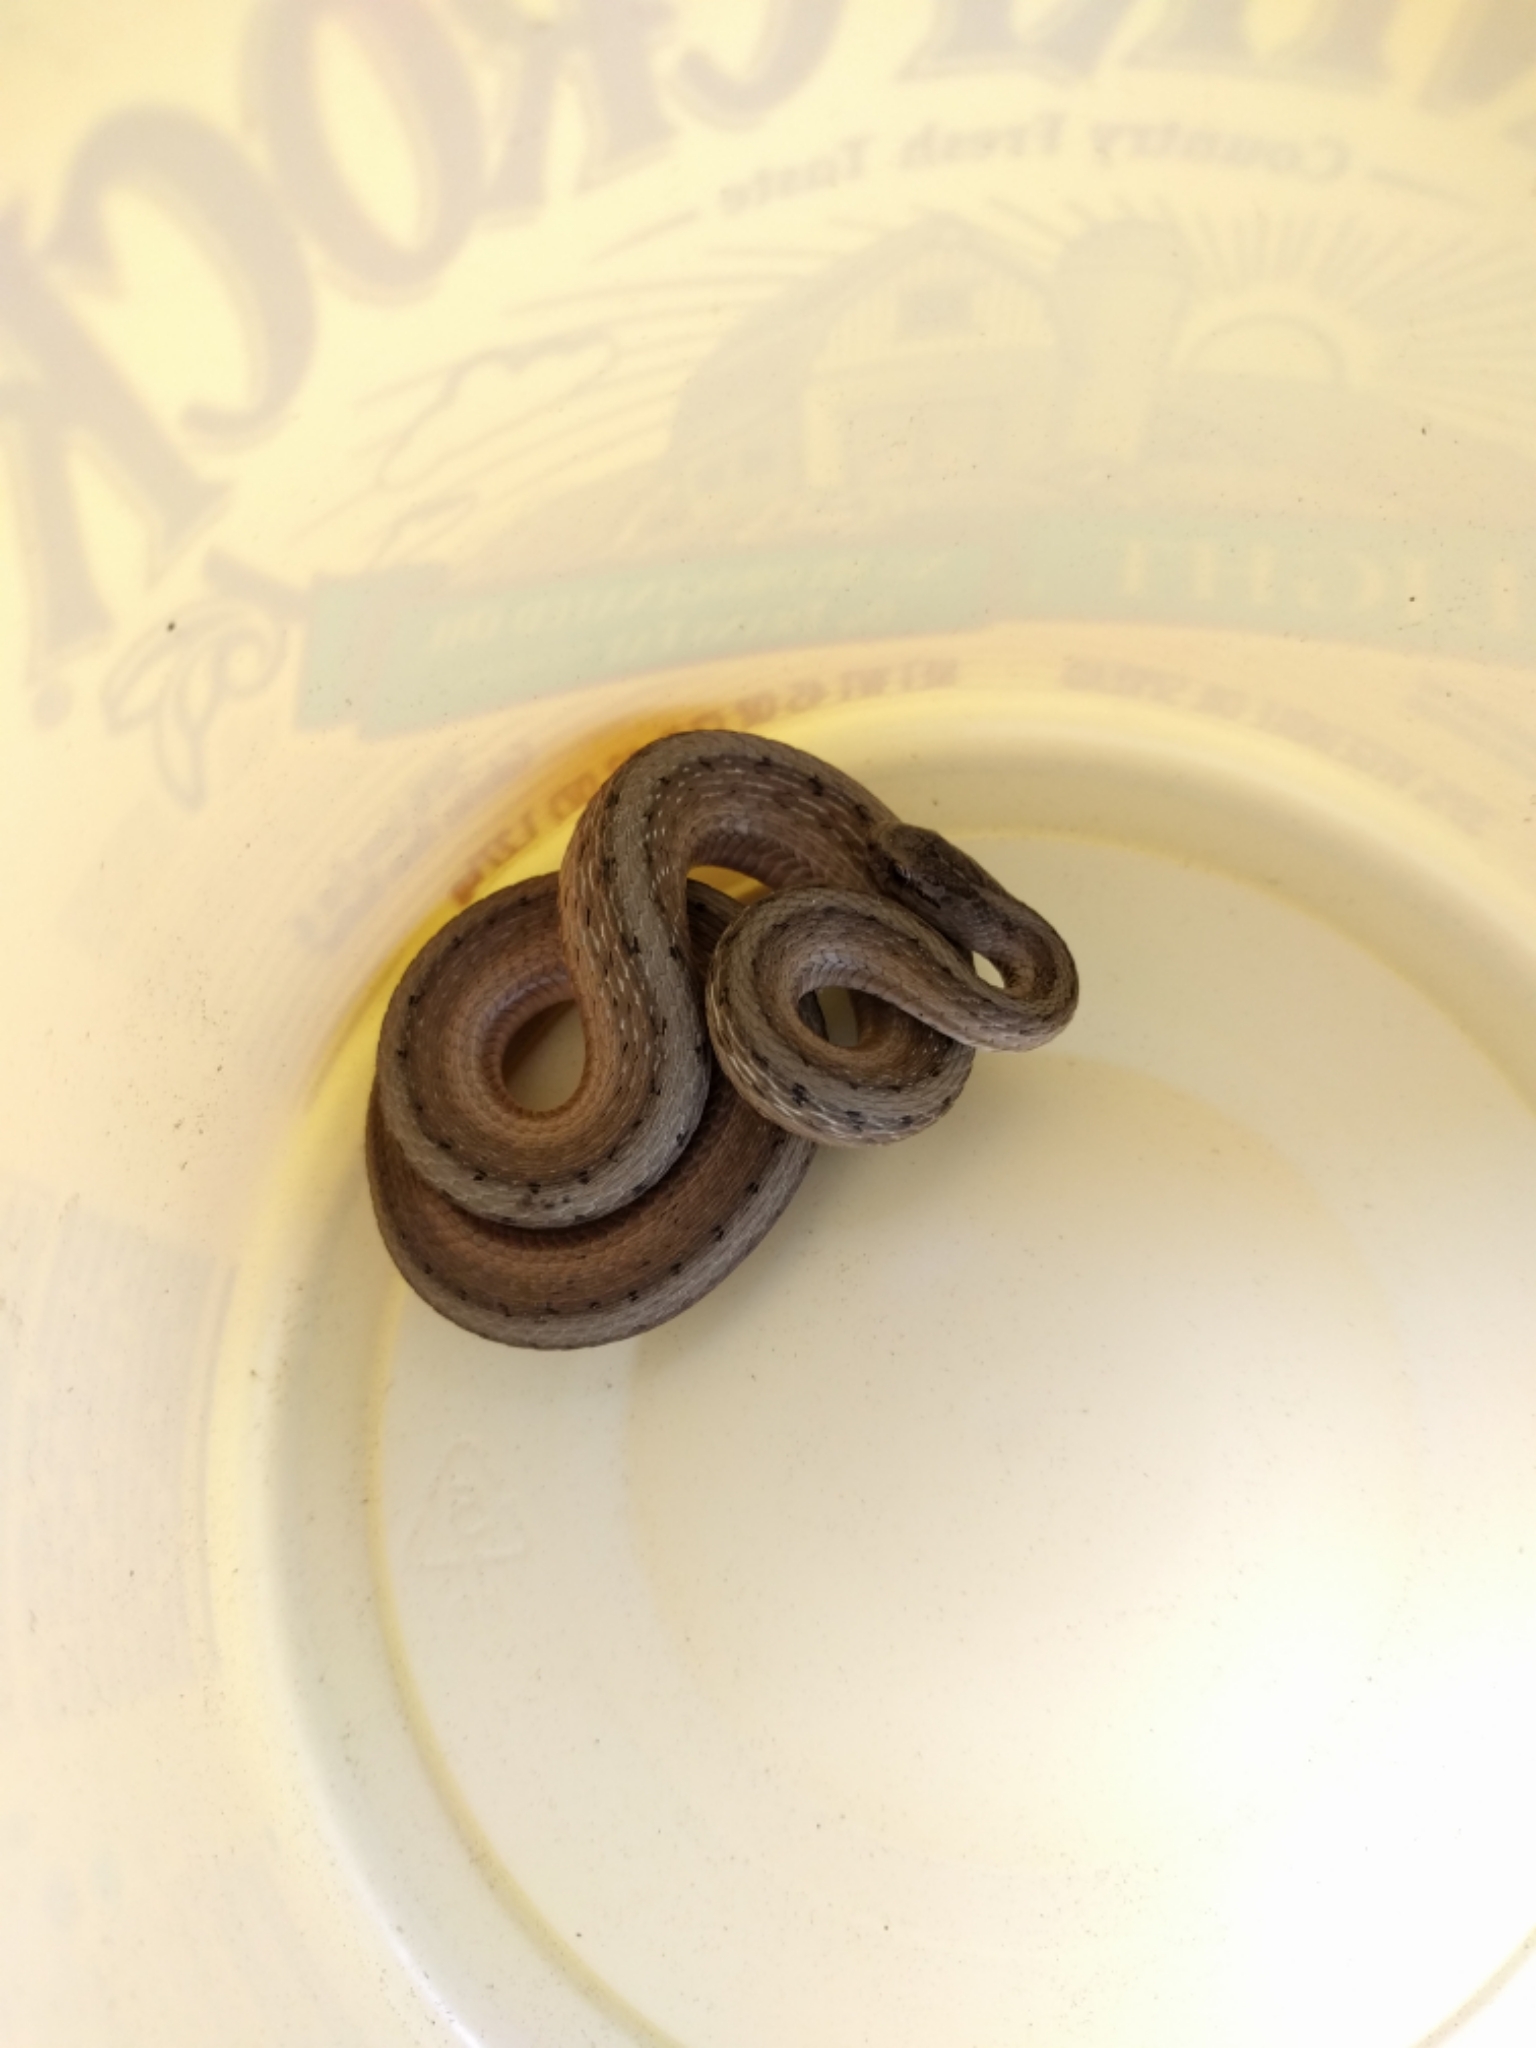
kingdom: Animalia
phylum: Chordata
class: Squamata
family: Colubridae
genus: Storeria
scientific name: Storeria dekayi
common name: (dekay’s) brown snake
